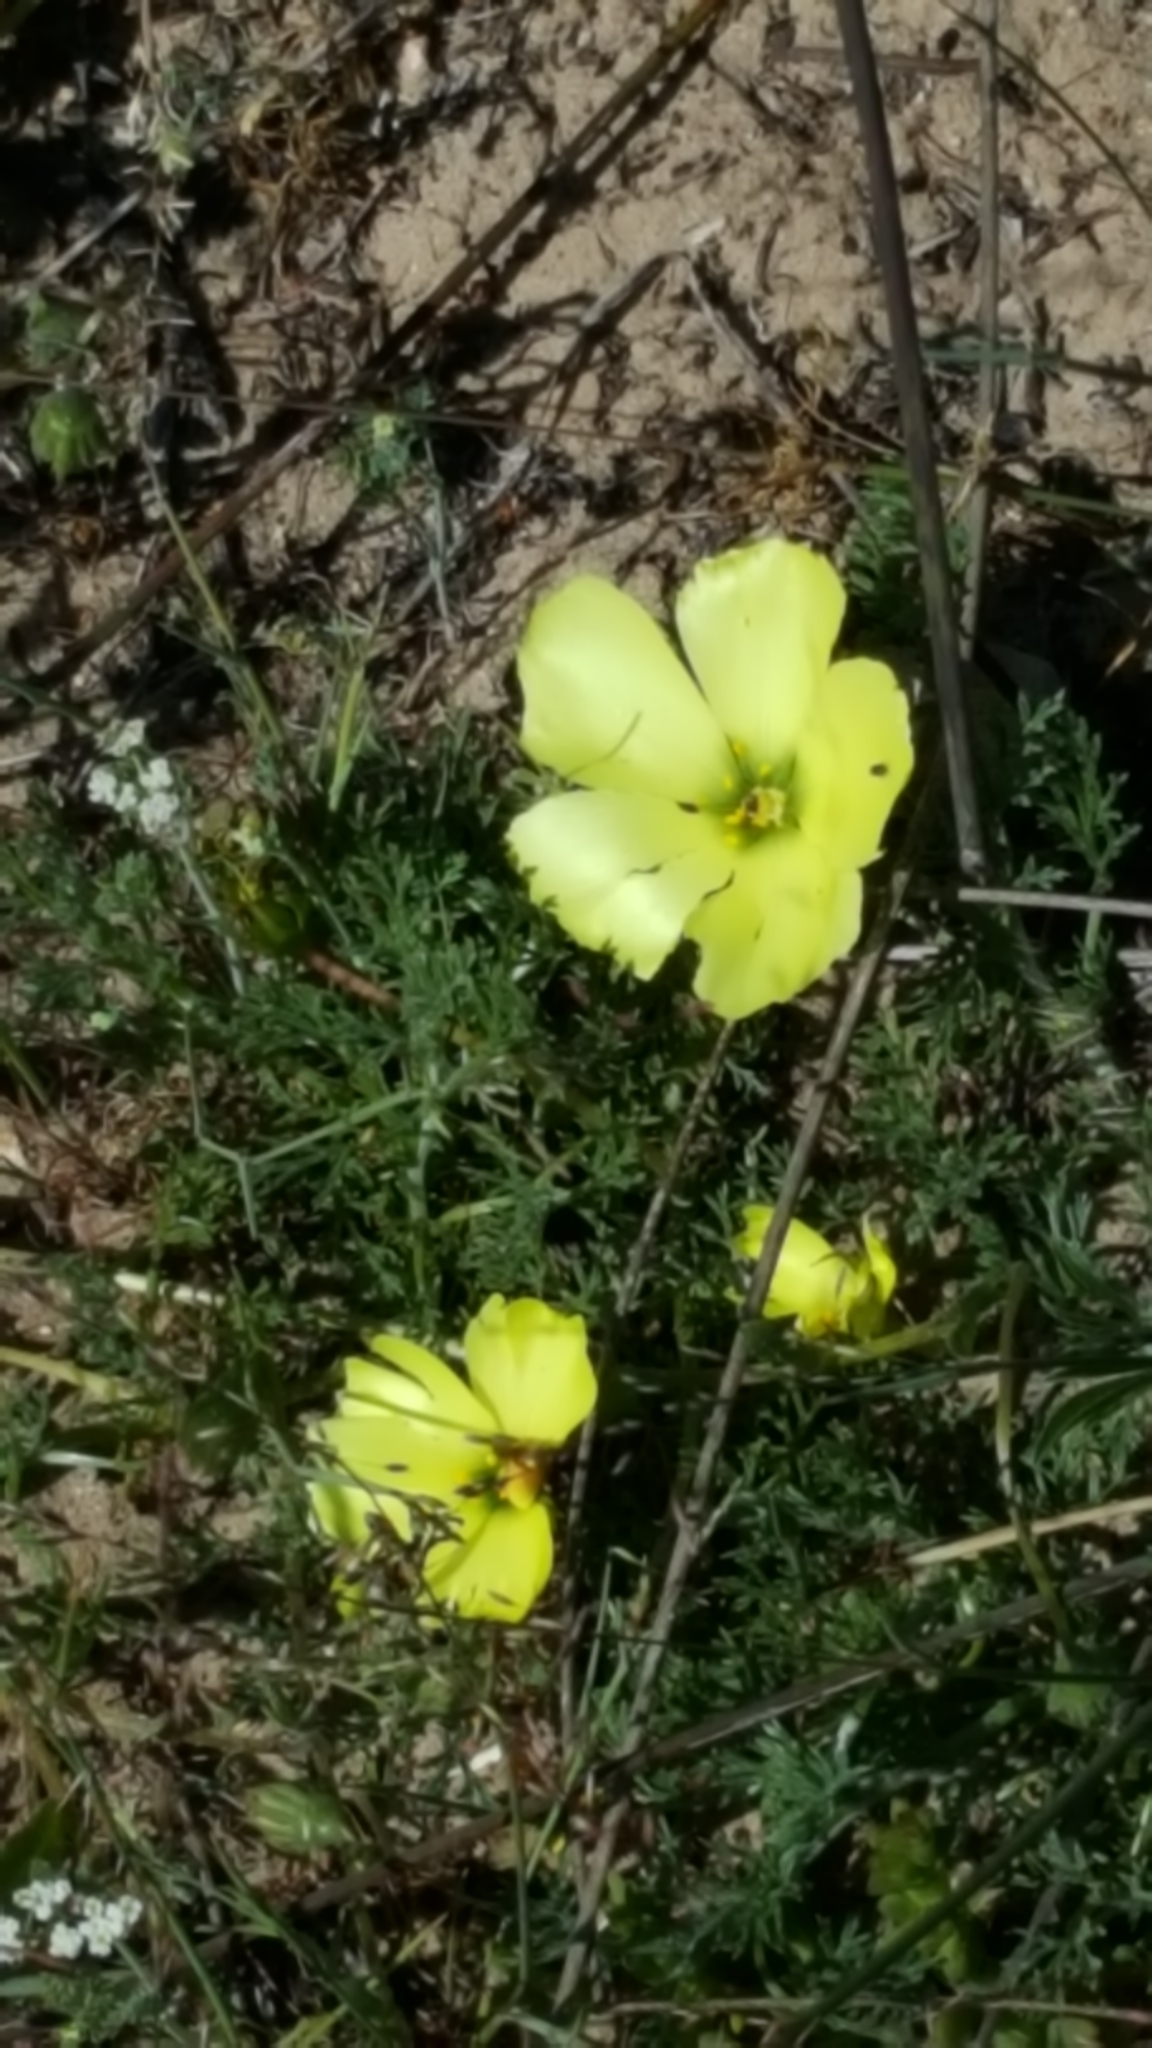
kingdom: Plantae
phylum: Tracheophyta
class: Magnoliopsida
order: Malvales
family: Neuradaceae
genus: Grielum
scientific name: Grielum grandiflorum
